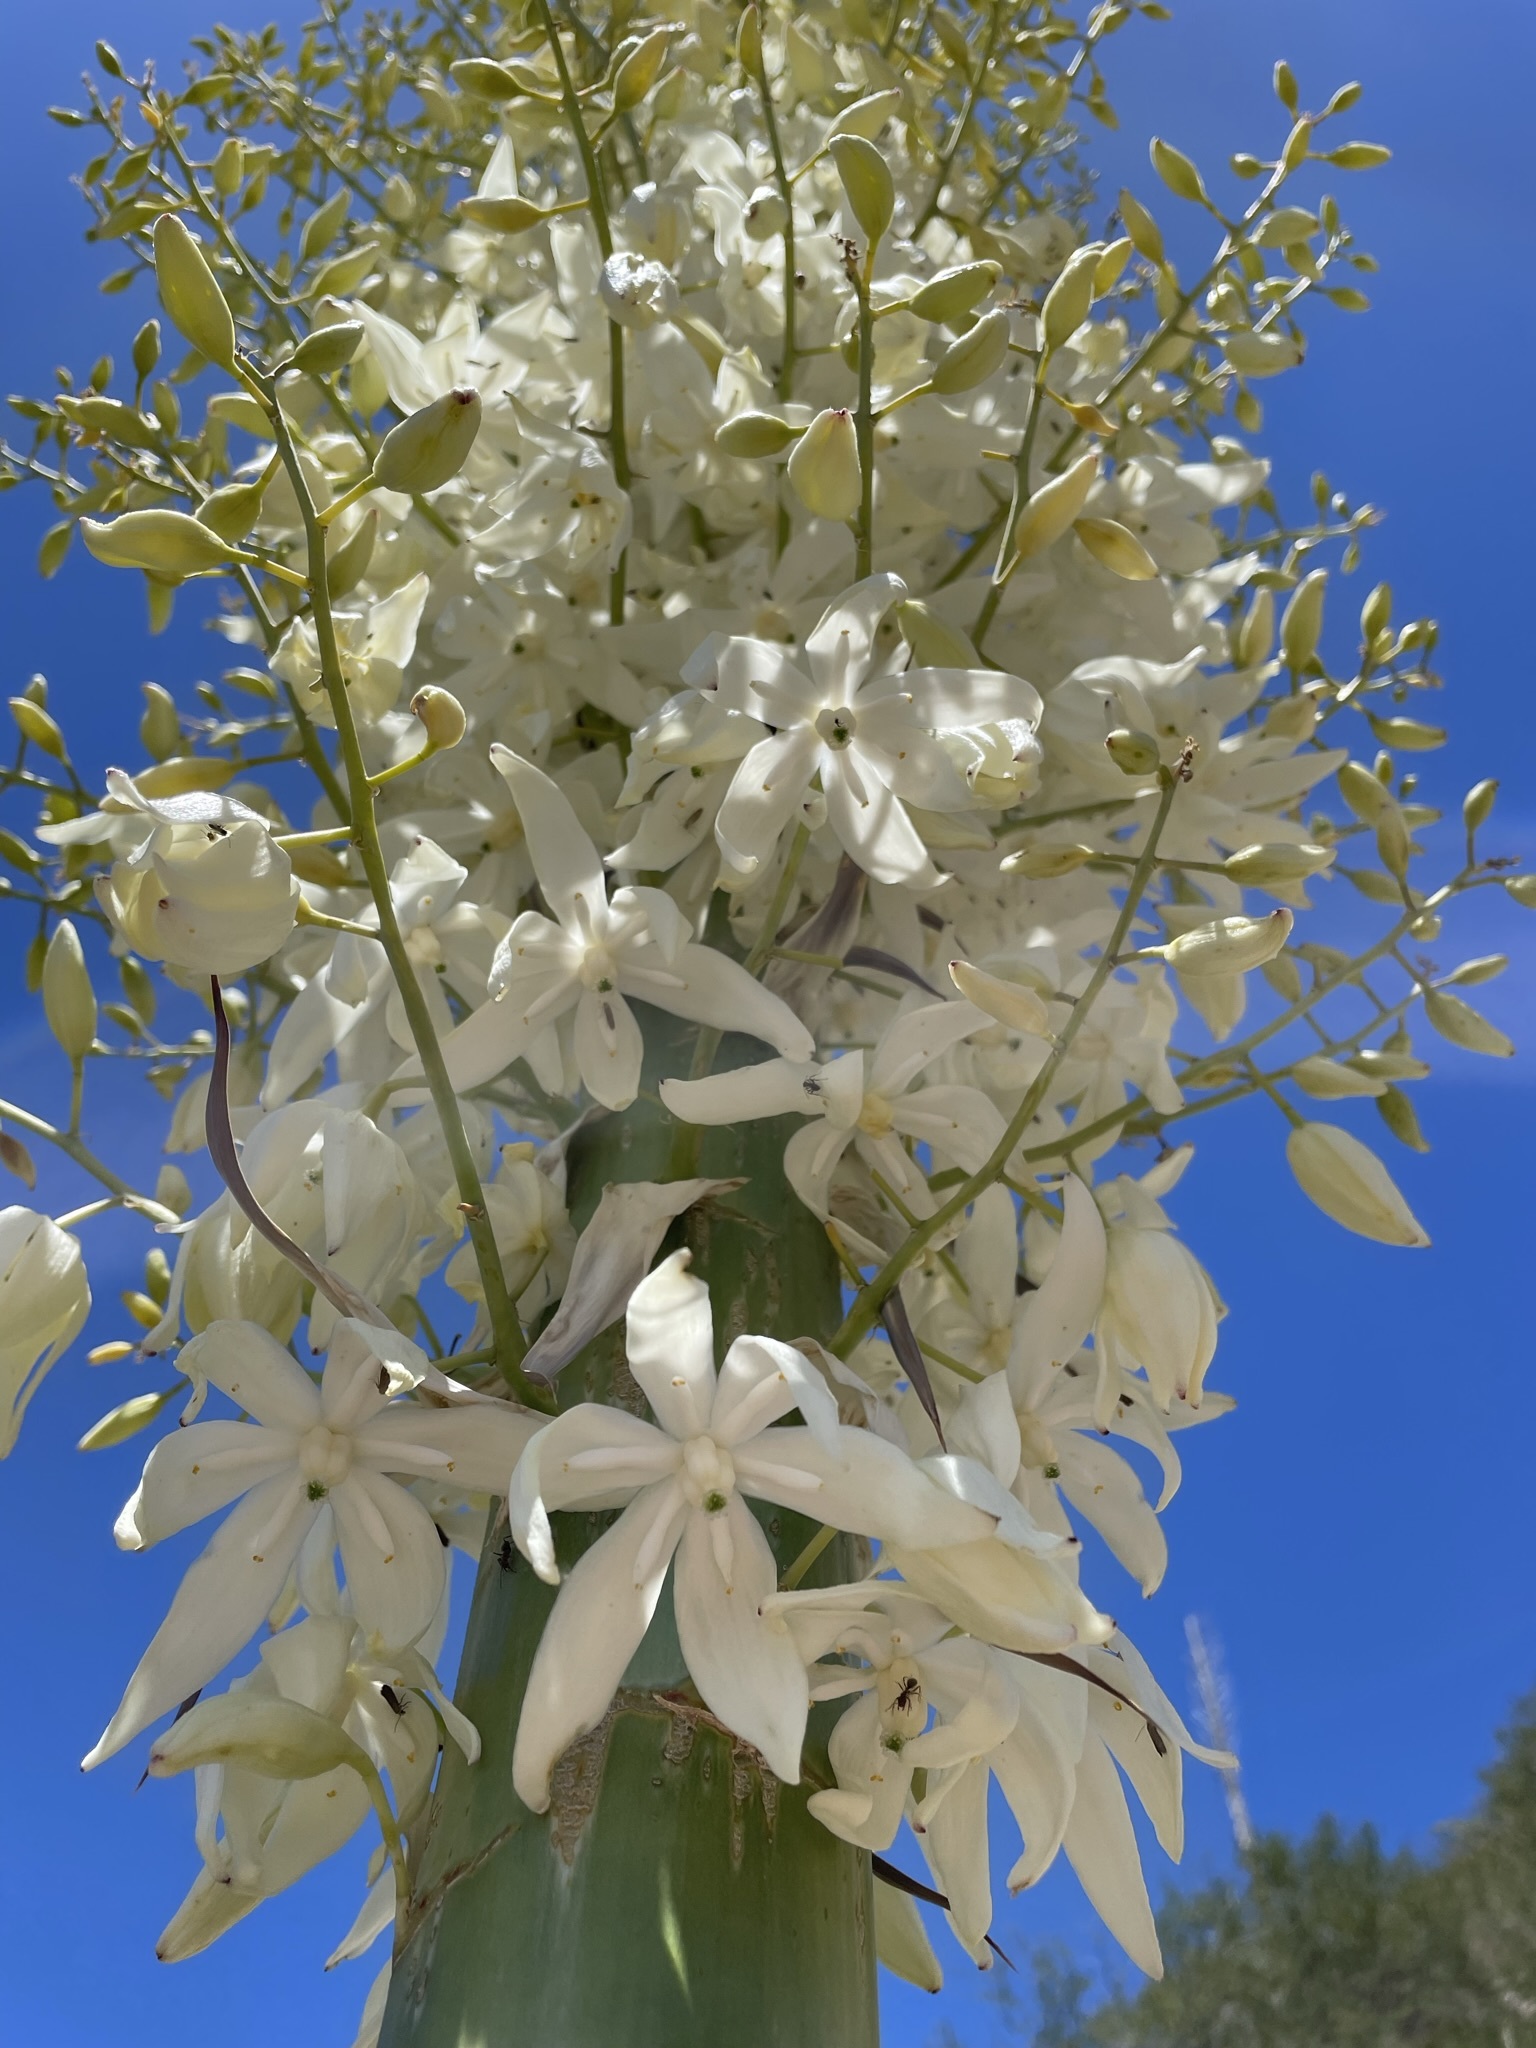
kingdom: Plantae
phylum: Tracheophyta
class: Liliopsida
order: Asparagales
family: Asparagaceae
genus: Hesperoyucca
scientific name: Hesperoyucca whipplei
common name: Our lord's-candle
